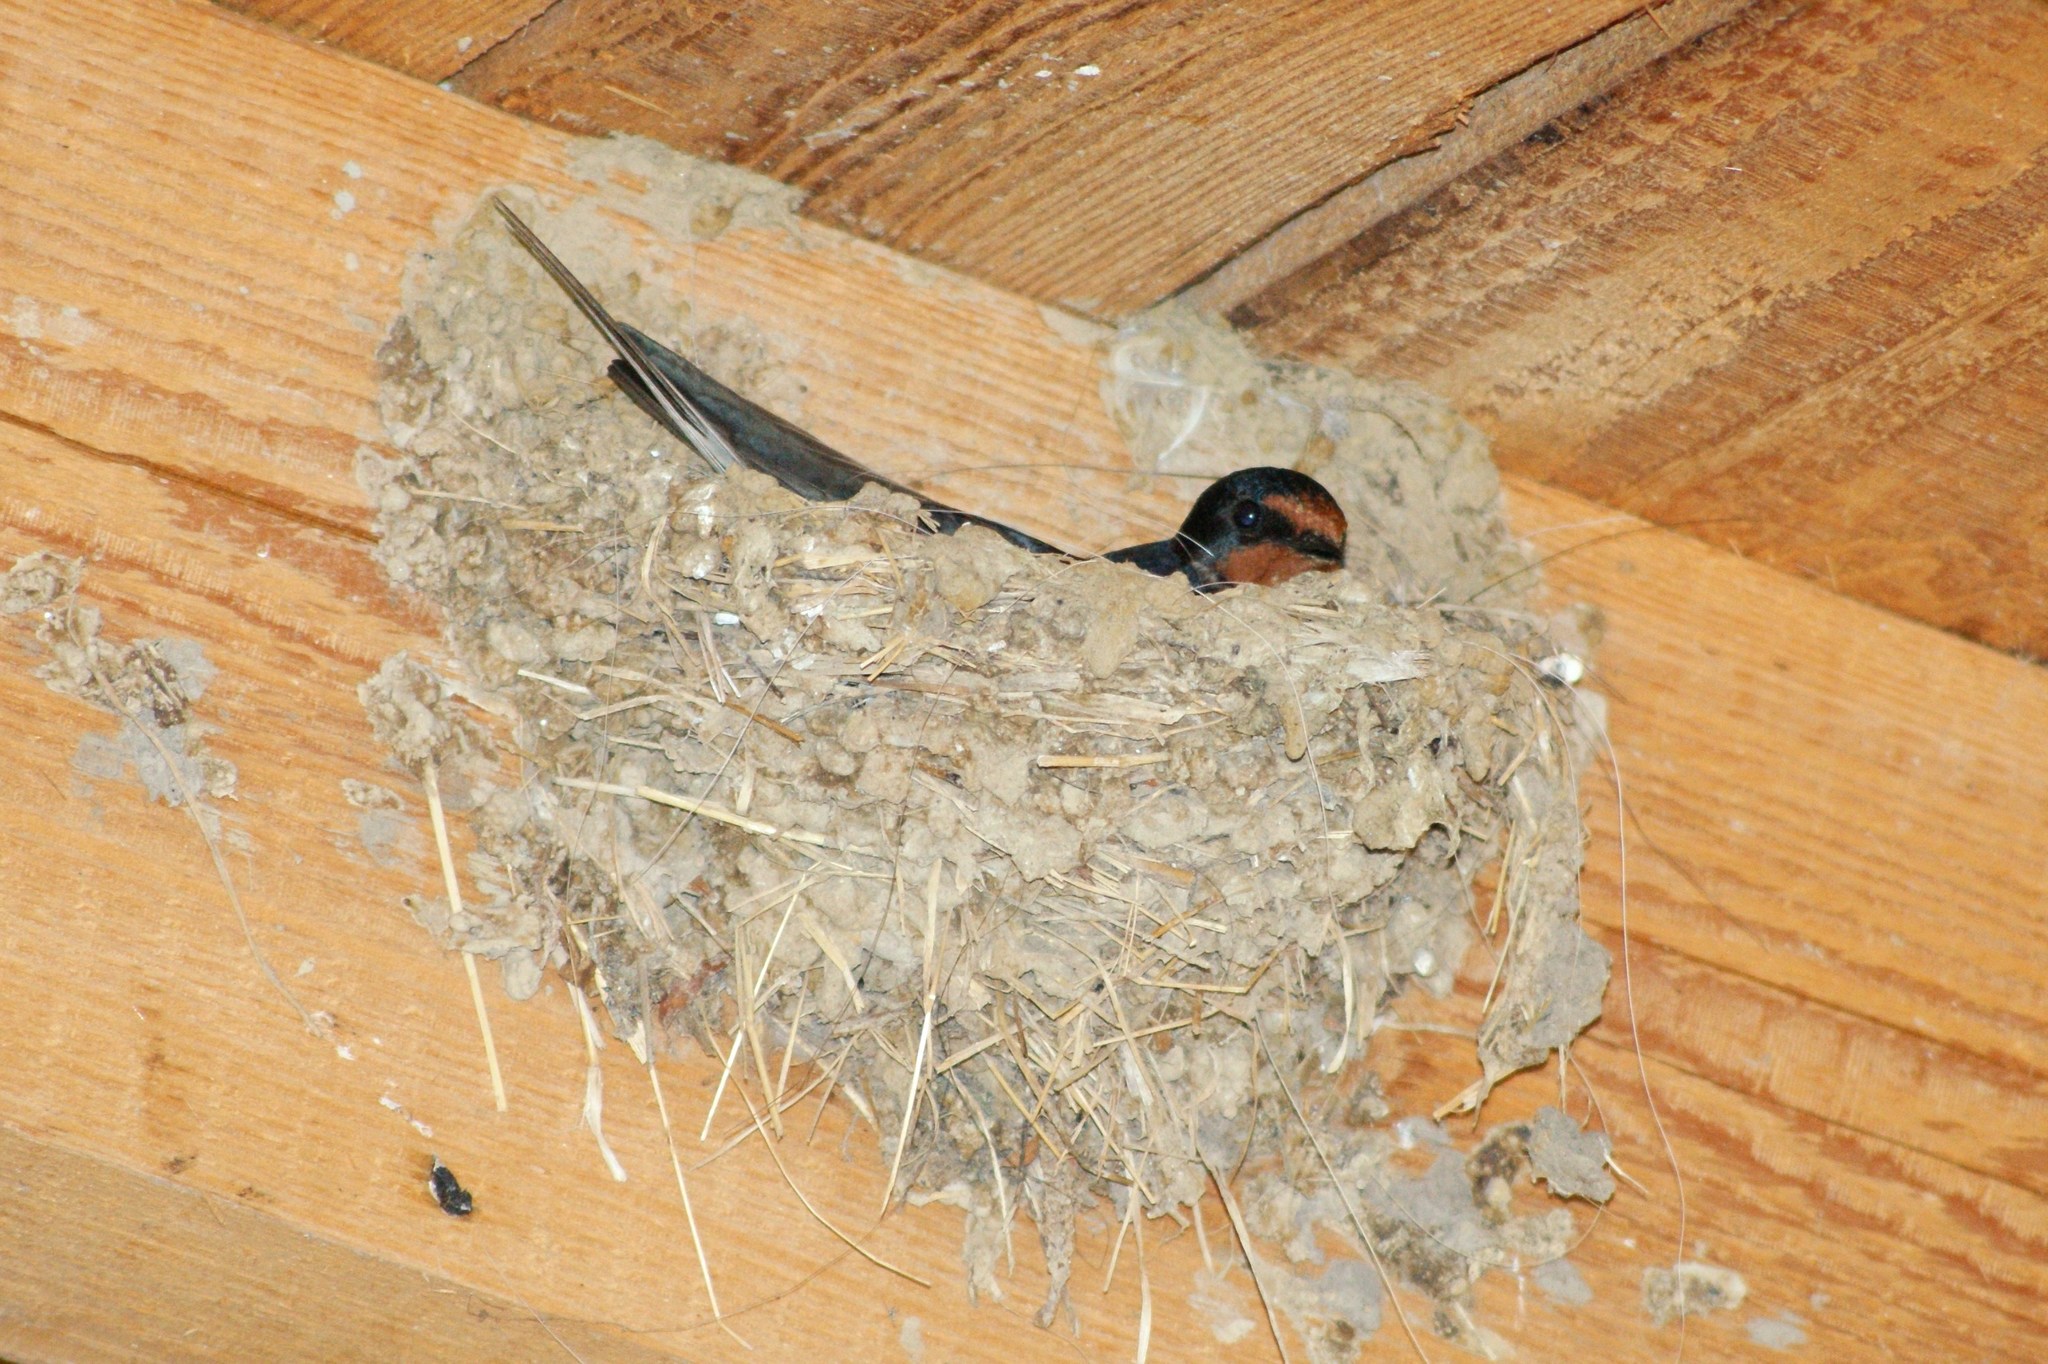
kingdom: Animalia
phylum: Chordata
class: Aves
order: Passeriformes
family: Hirundinidae
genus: Hirundo
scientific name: Hirundo rustica
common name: Barn swallow
